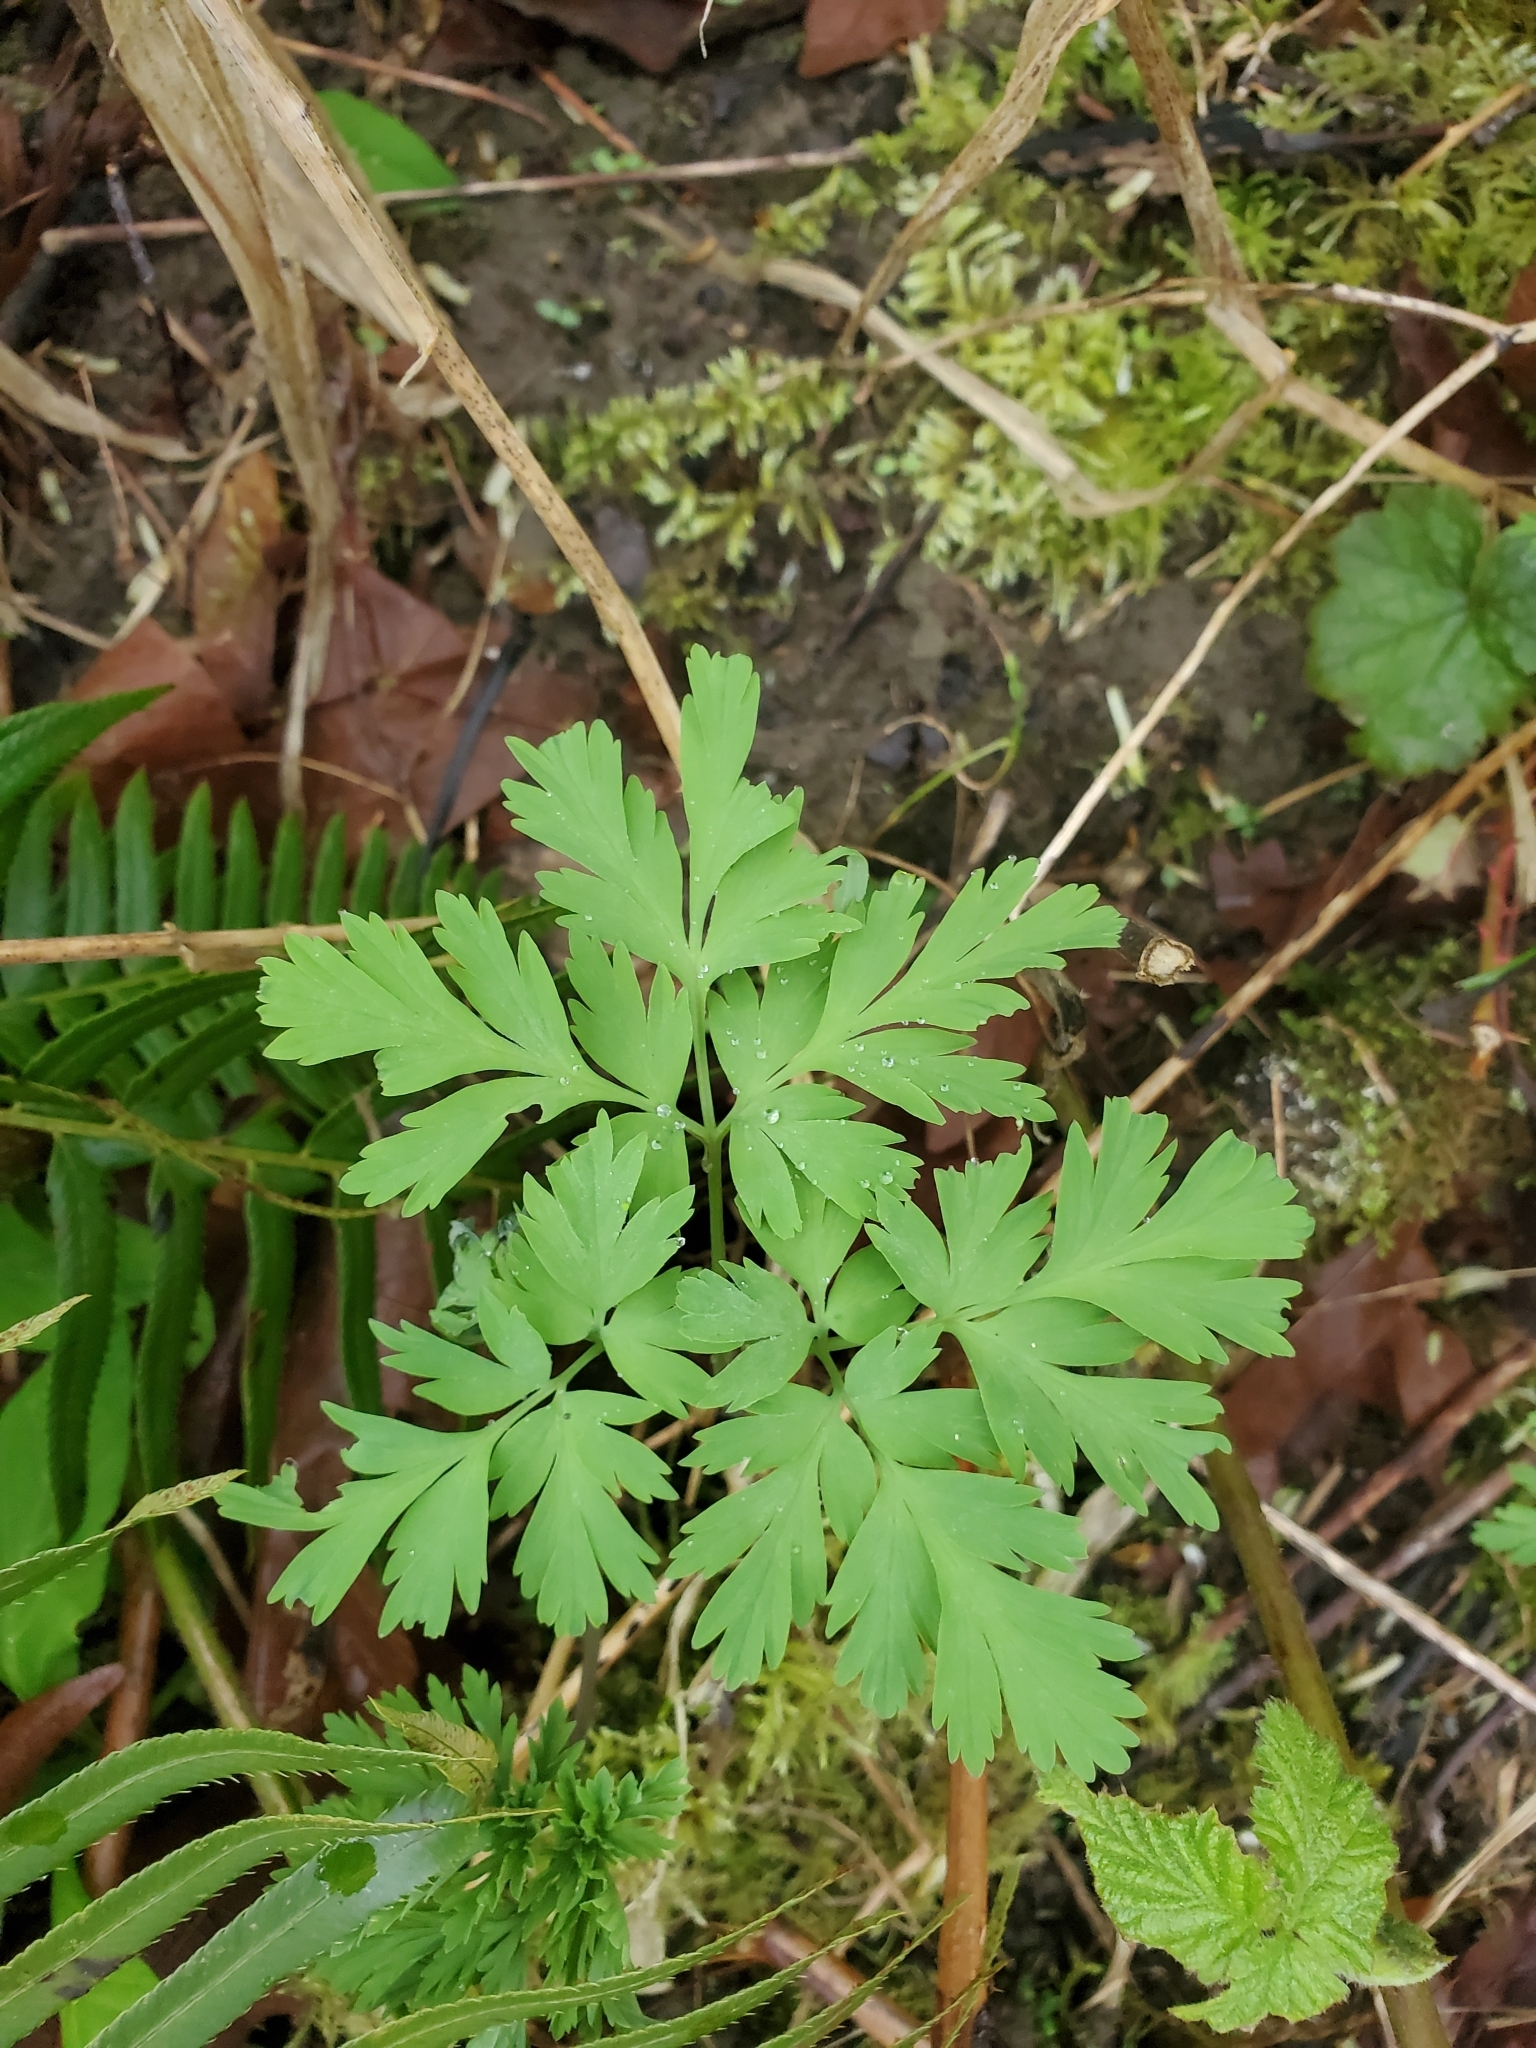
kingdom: Plantae
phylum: Tracheophyta
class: Magnoliopsida
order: Ranunculales
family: Papaveraceae
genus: Dicentra
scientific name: Dicentra formosa
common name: Bleeding-heart
